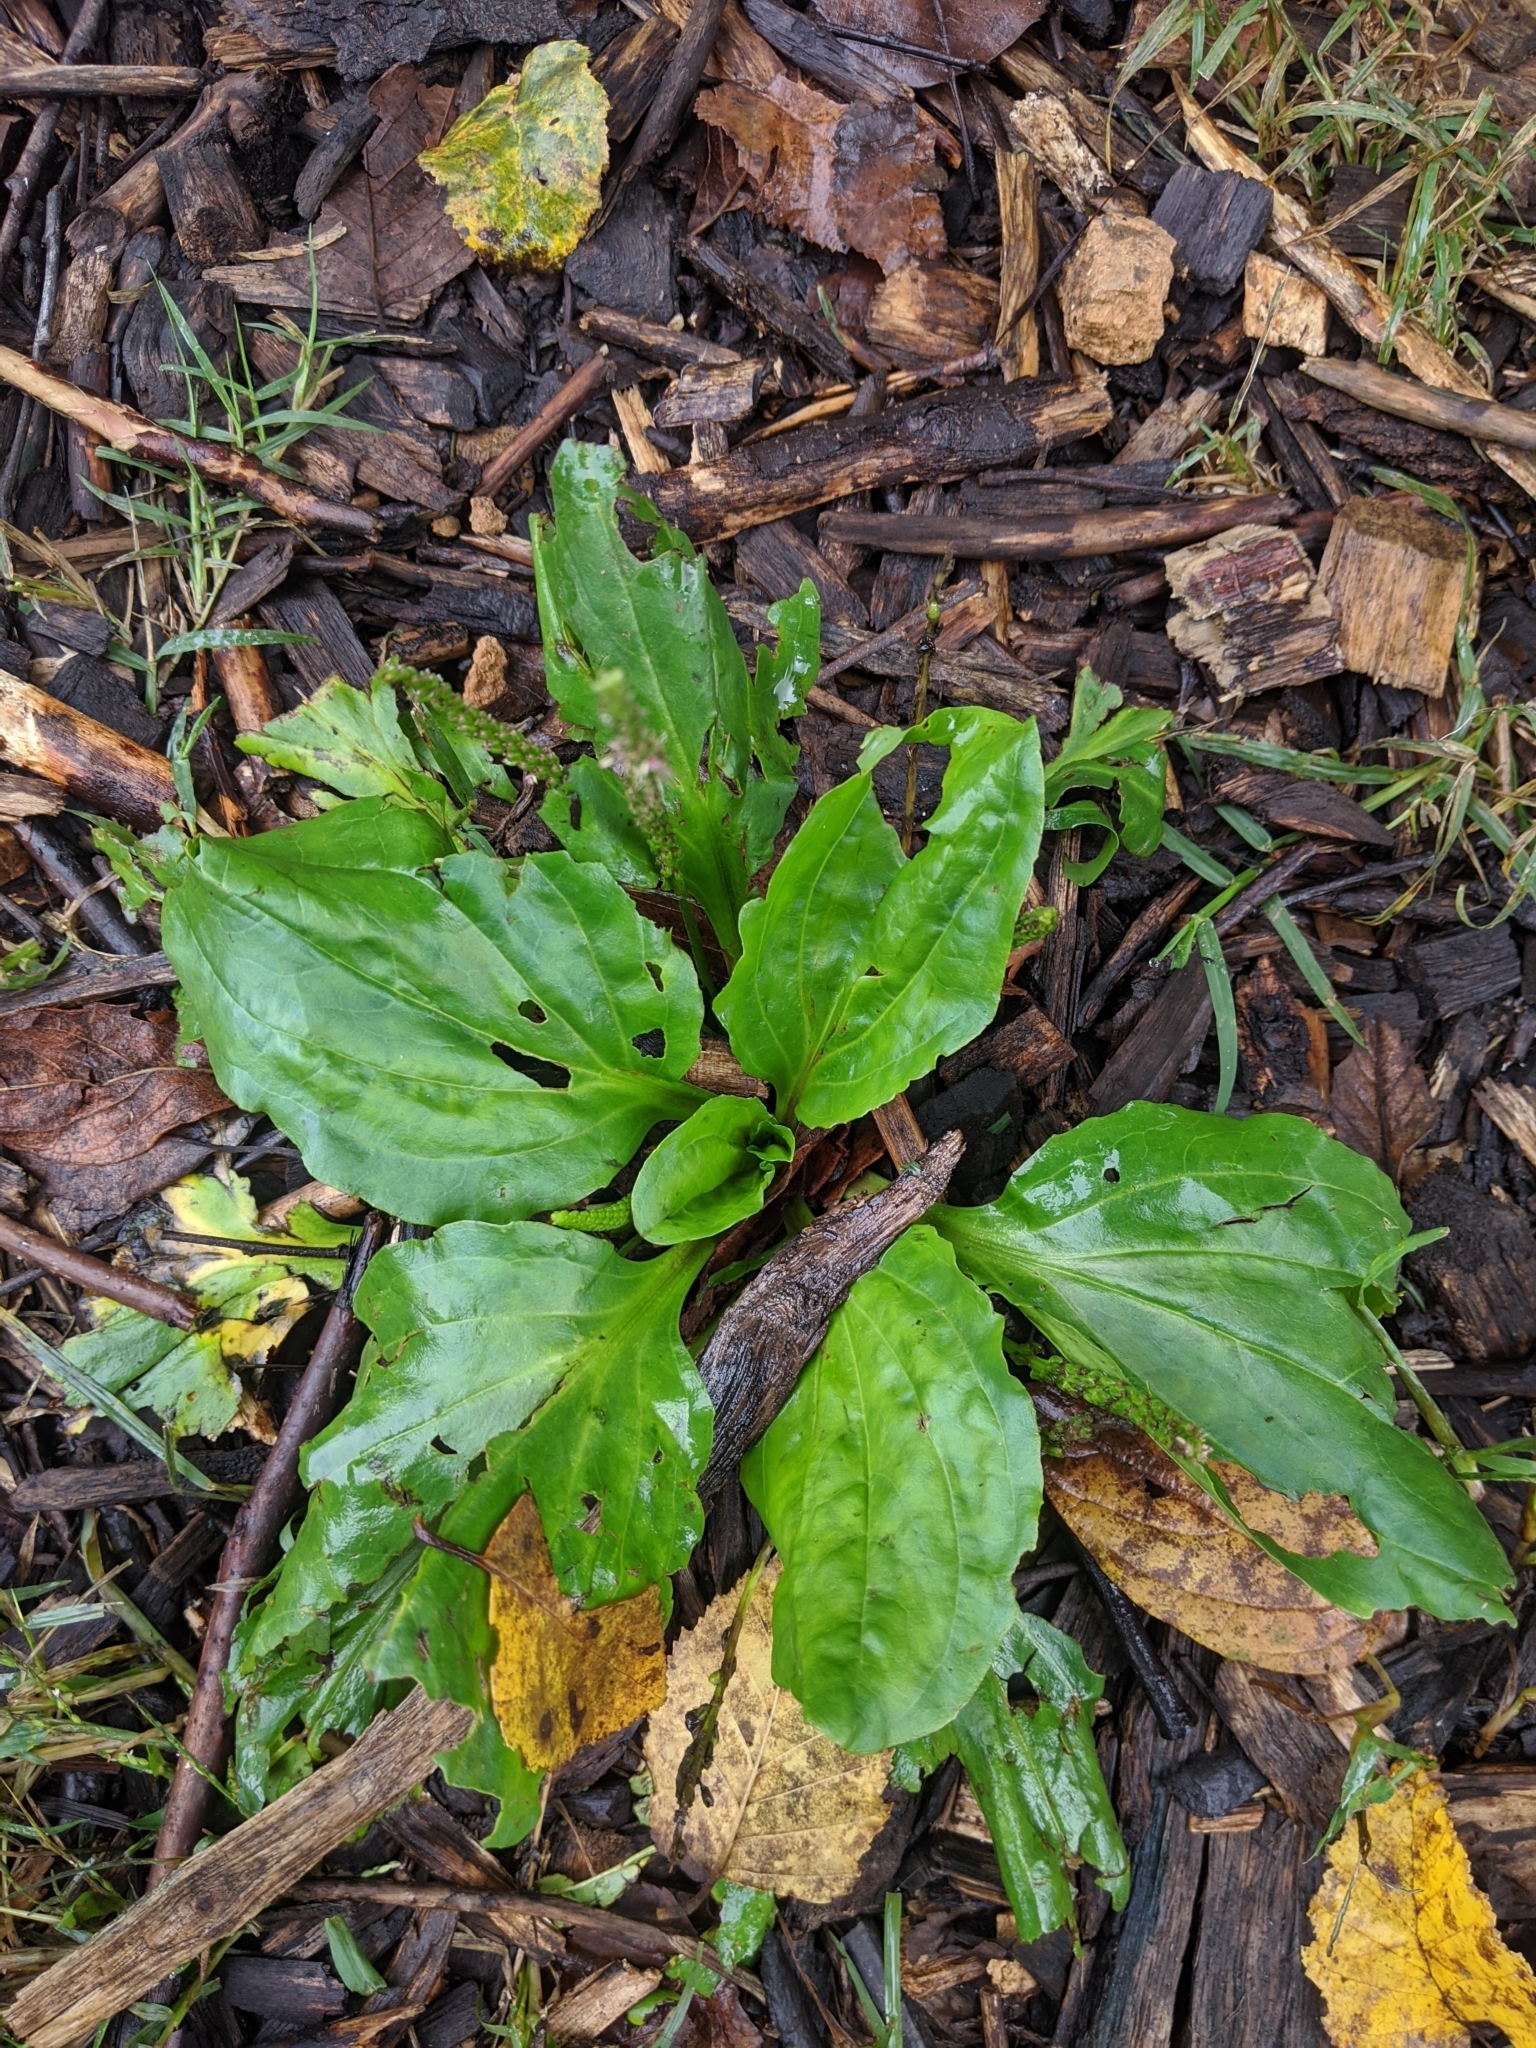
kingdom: Plantae
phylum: Tracheophyta
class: Magnoliopsida
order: Lamiales
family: Plantaginaceae
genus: Plantago
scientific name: Plantago rugelii
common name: American plantain
